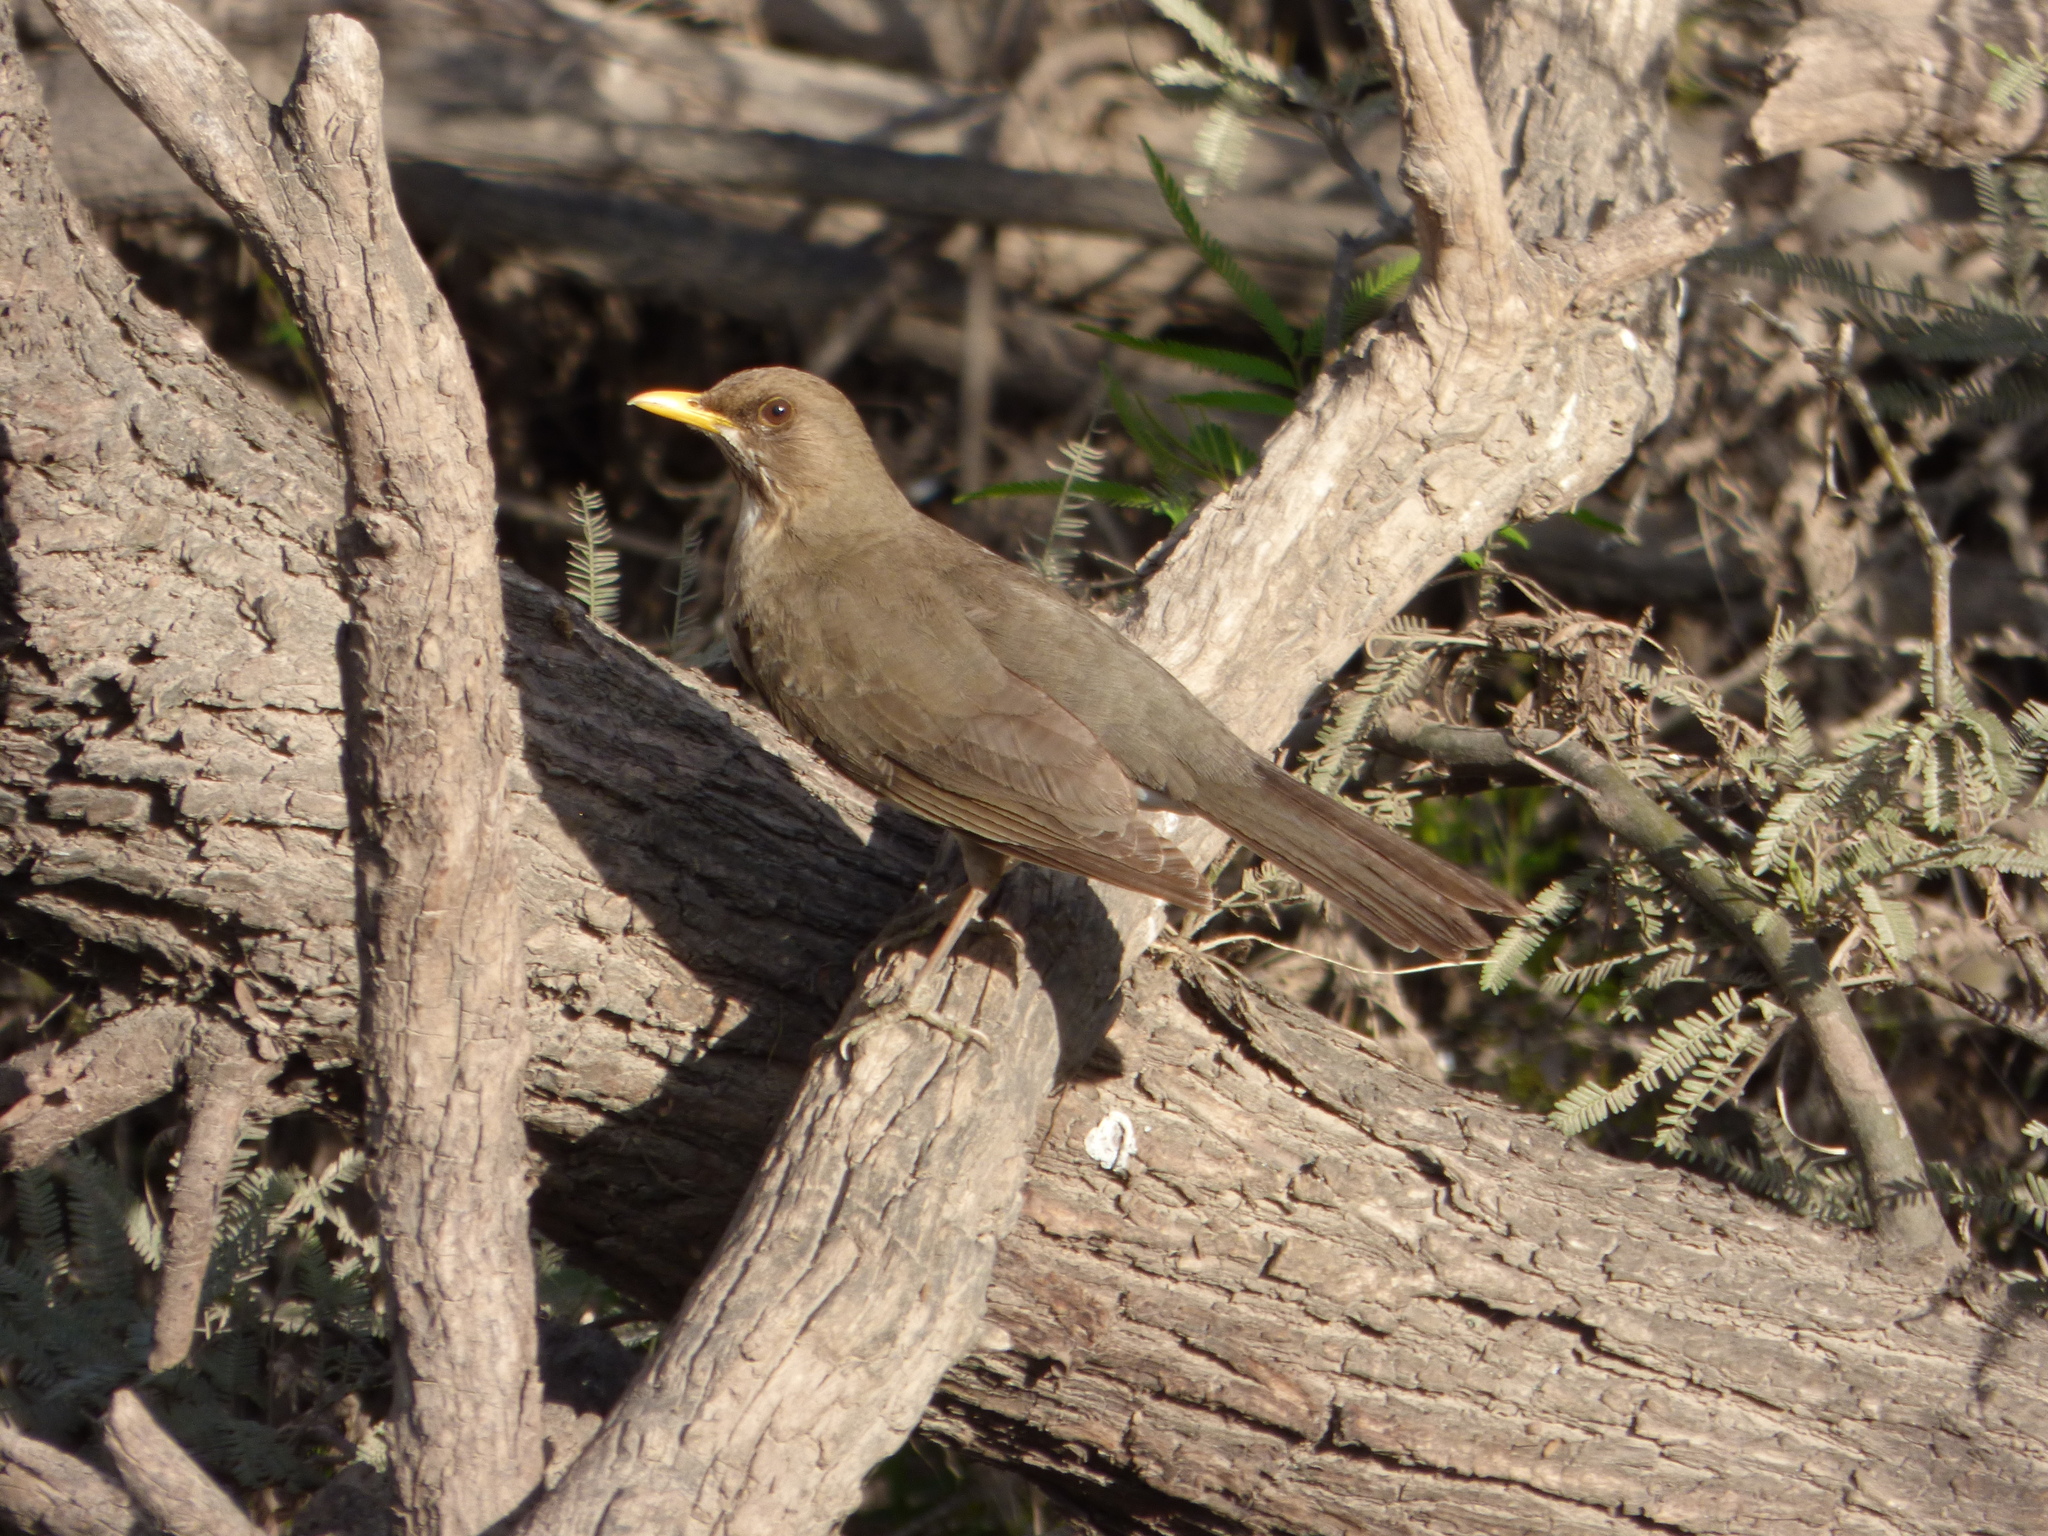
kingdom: Animalia
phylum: Chordata
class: Aves
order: Passeriformes
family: Turdidae
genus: Turdus
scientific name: Turdus amaurochalinus
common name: Creamy-bellied thrush
